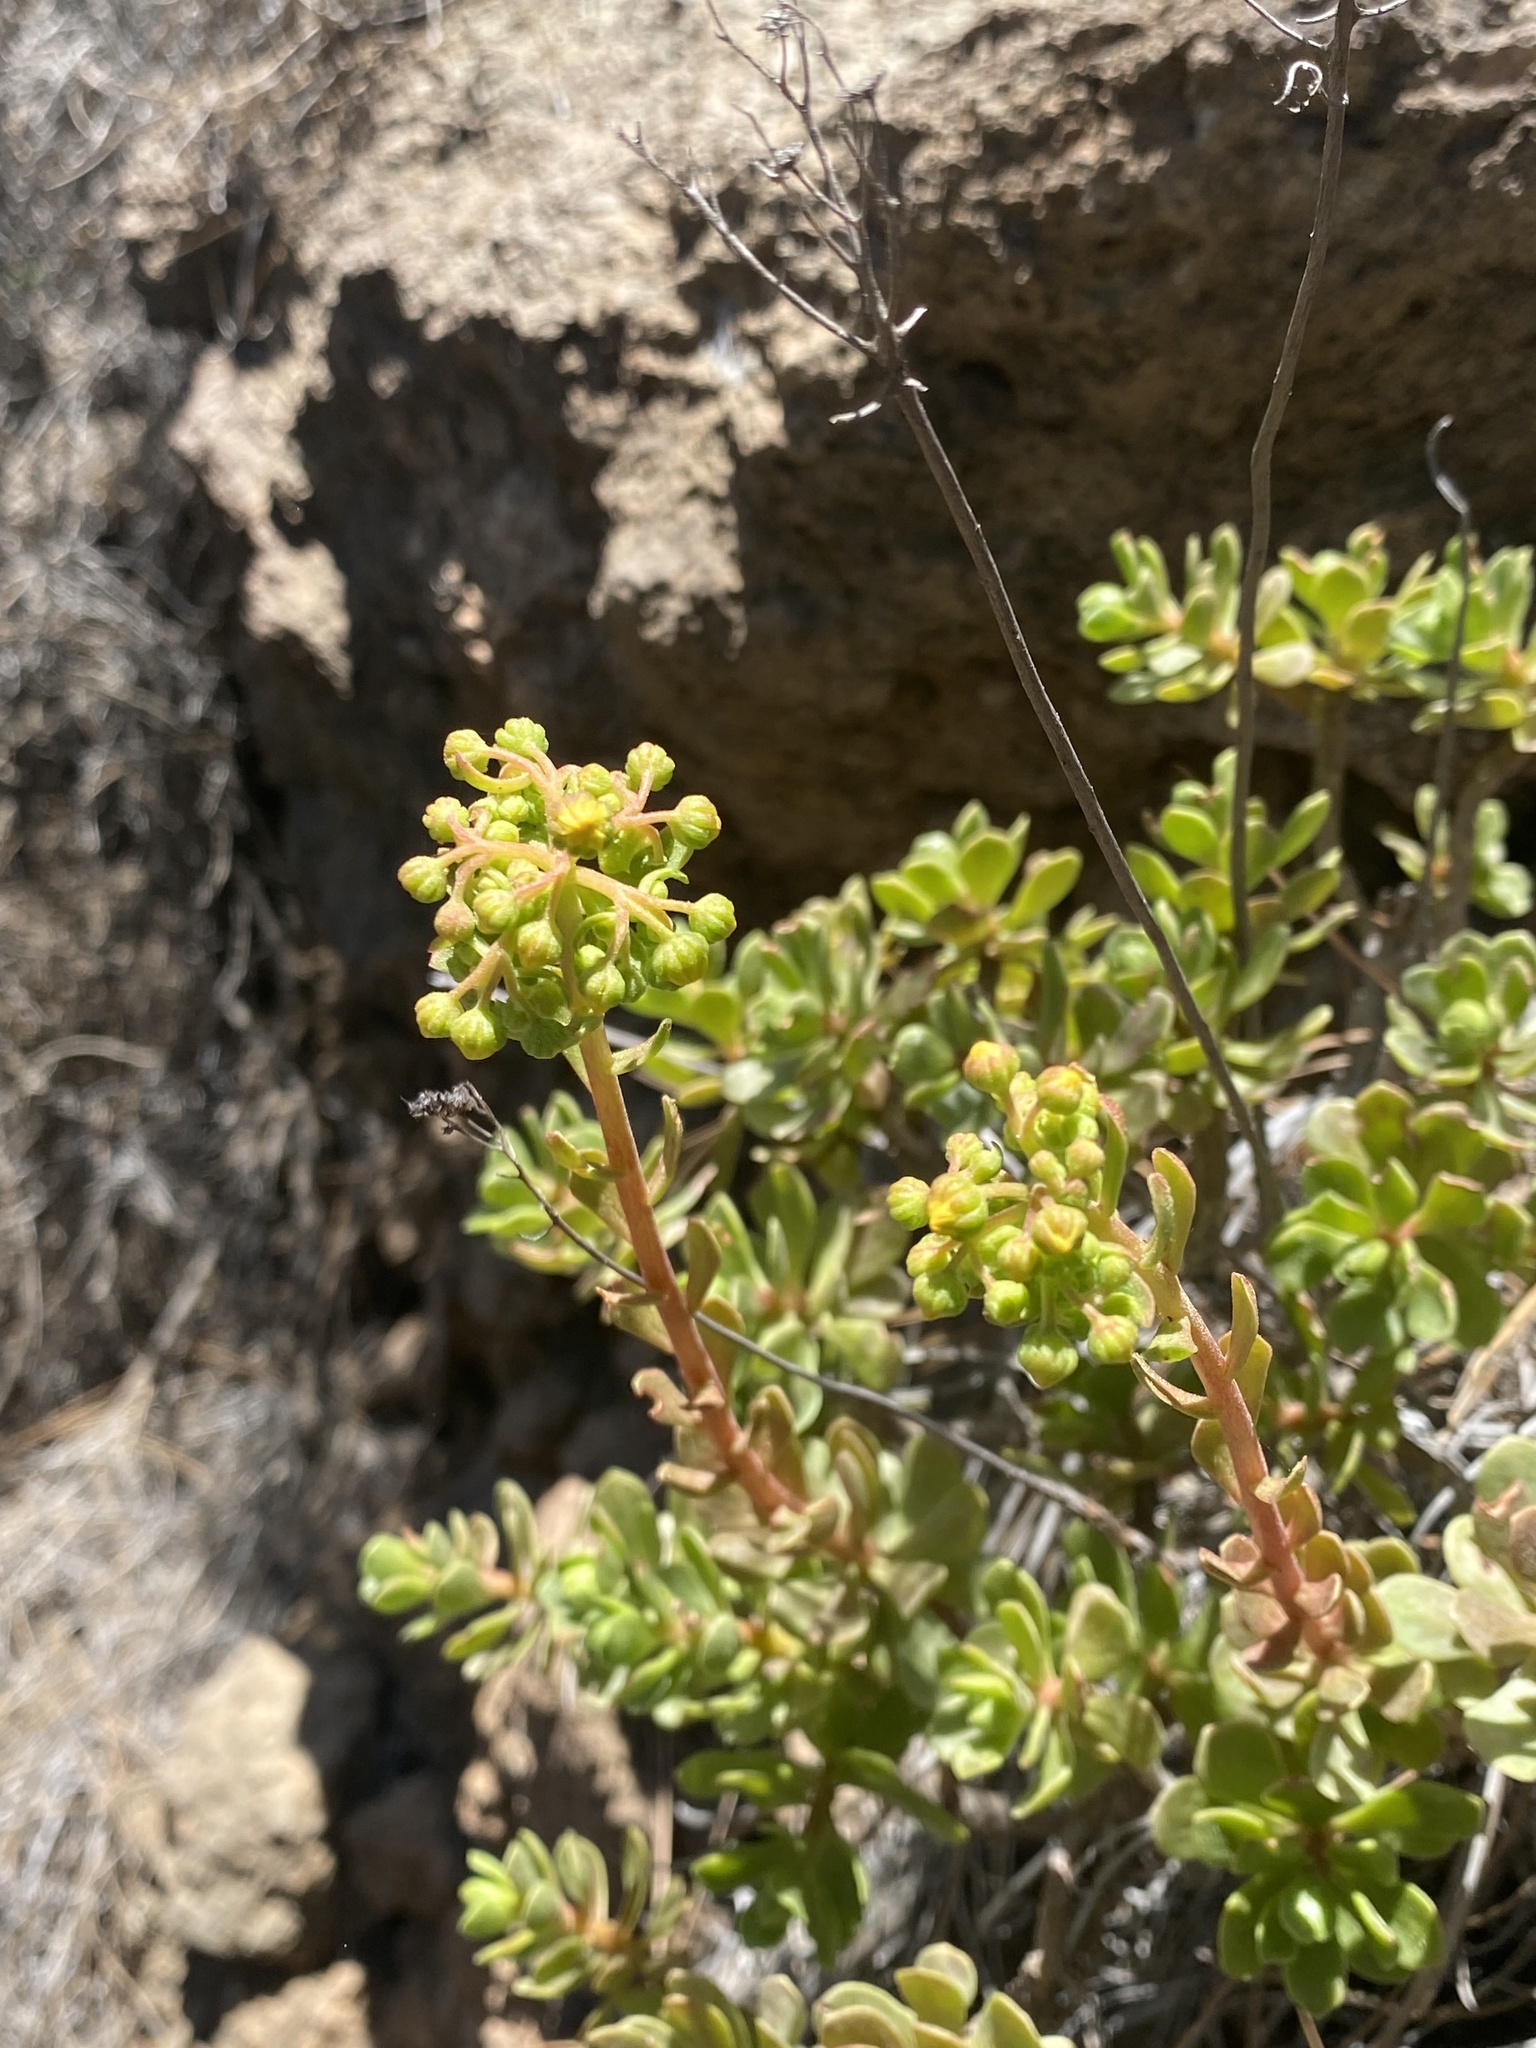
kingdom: Plantae
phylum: Tracheophyta
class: Magnoliopsida
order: Saxifragales
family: Crassulaceae
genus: Aeonium
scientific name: Aeonium spathulatum
